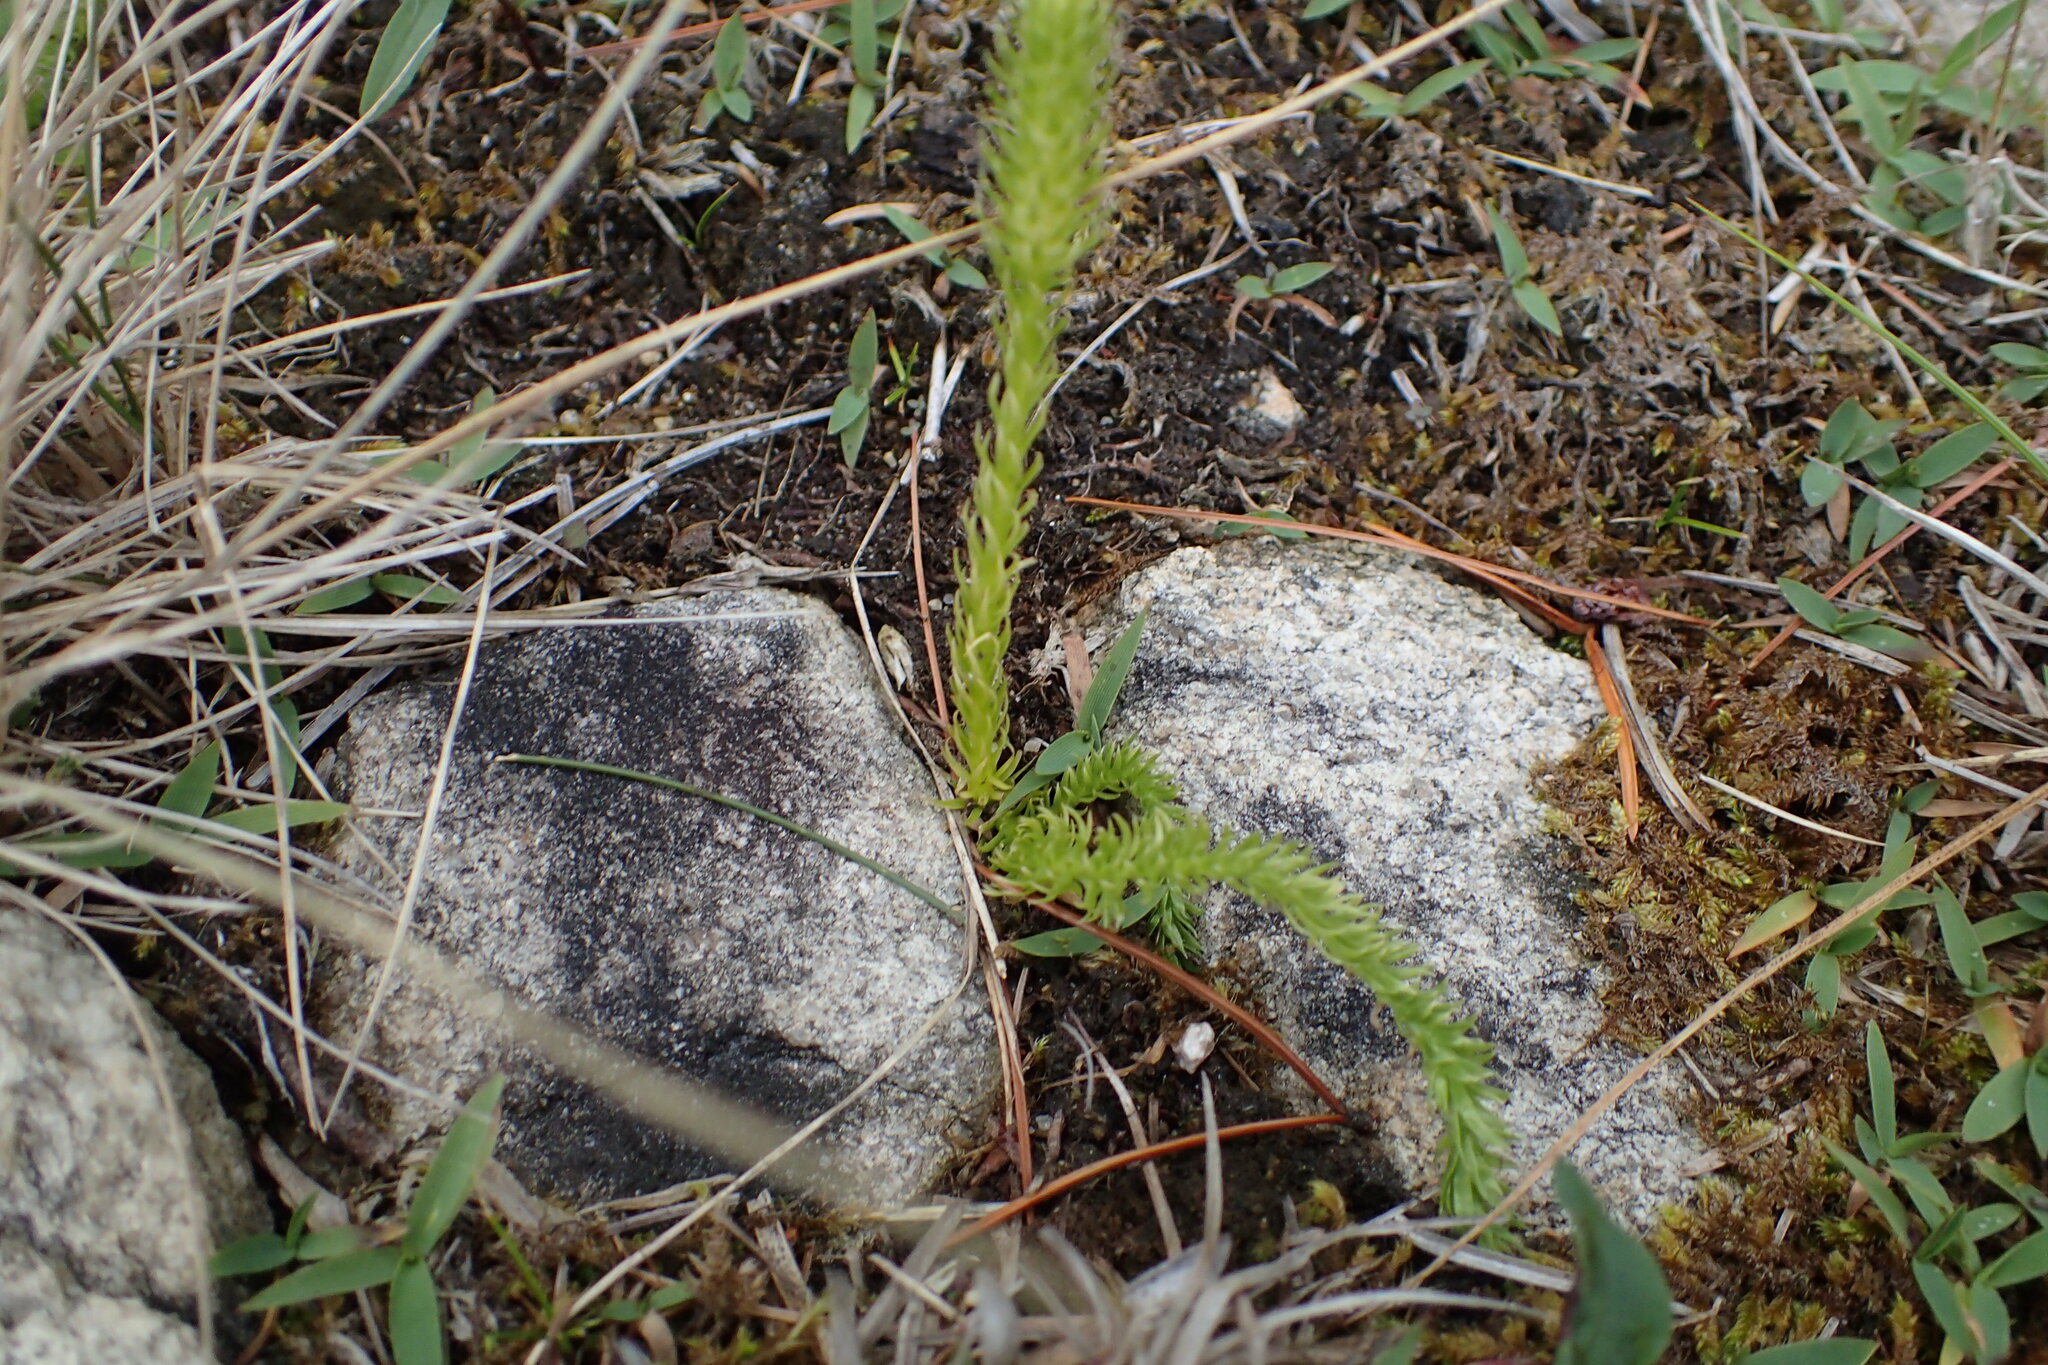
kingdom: Plantae
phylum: Tracheophyta
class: Lycopodiopsida
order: Lycopodiales
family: Lycopodiaceae
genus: Lycopodiella
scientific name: Lycopodiella inundata
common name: Marsh clubmoss
